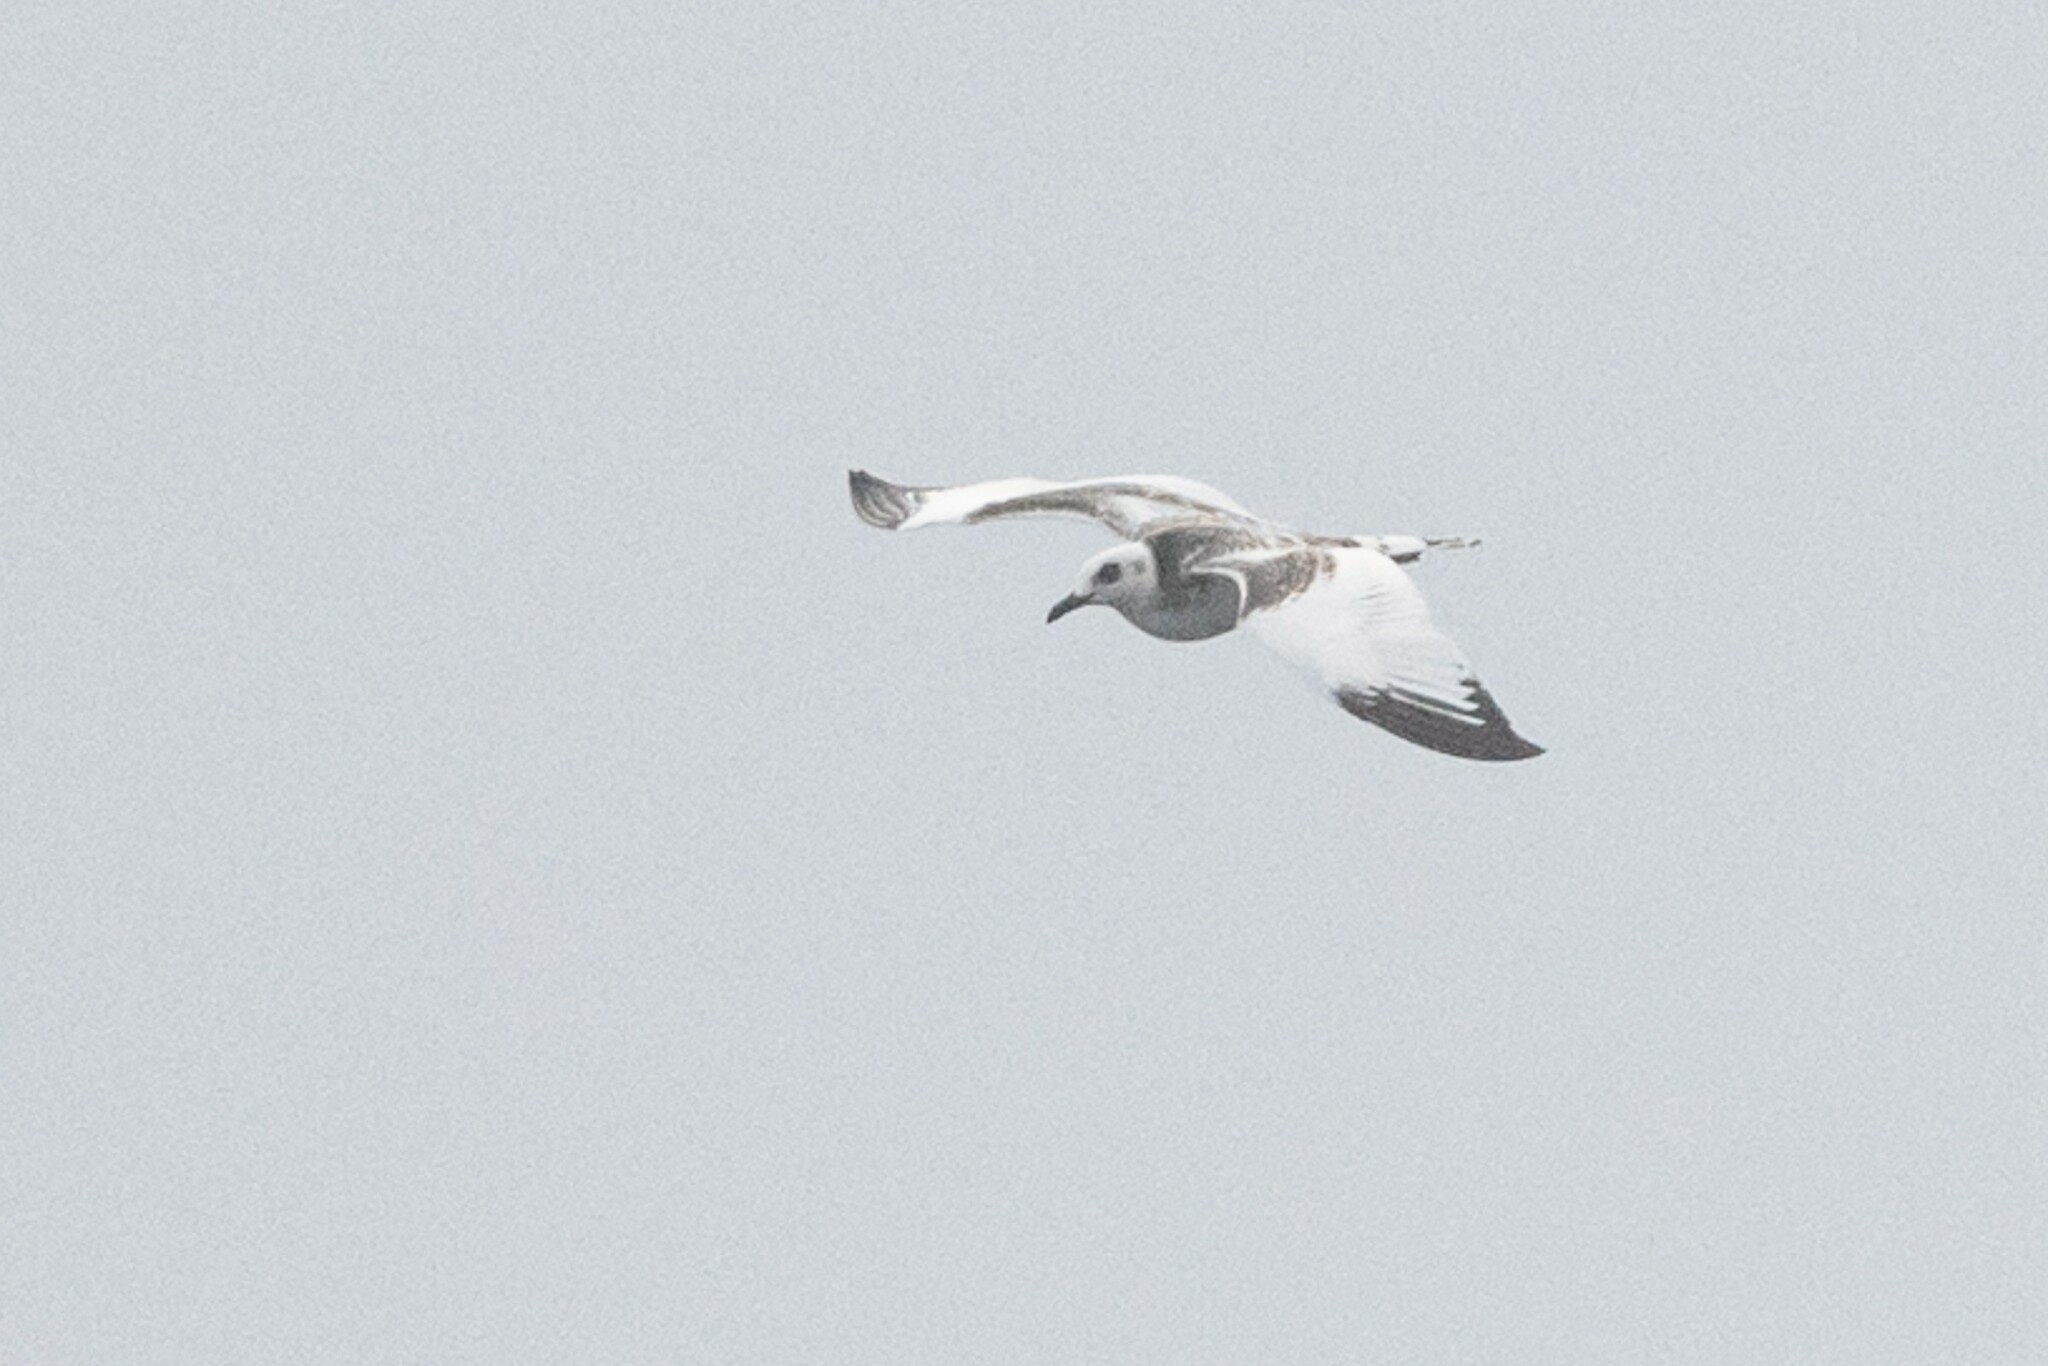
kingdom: Animalia
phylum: Chordata
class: Aves
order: Charadriiformes
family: Laridae
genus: Creagrus
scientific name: Creagrus furcatus
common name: Swallow-tailed gull
